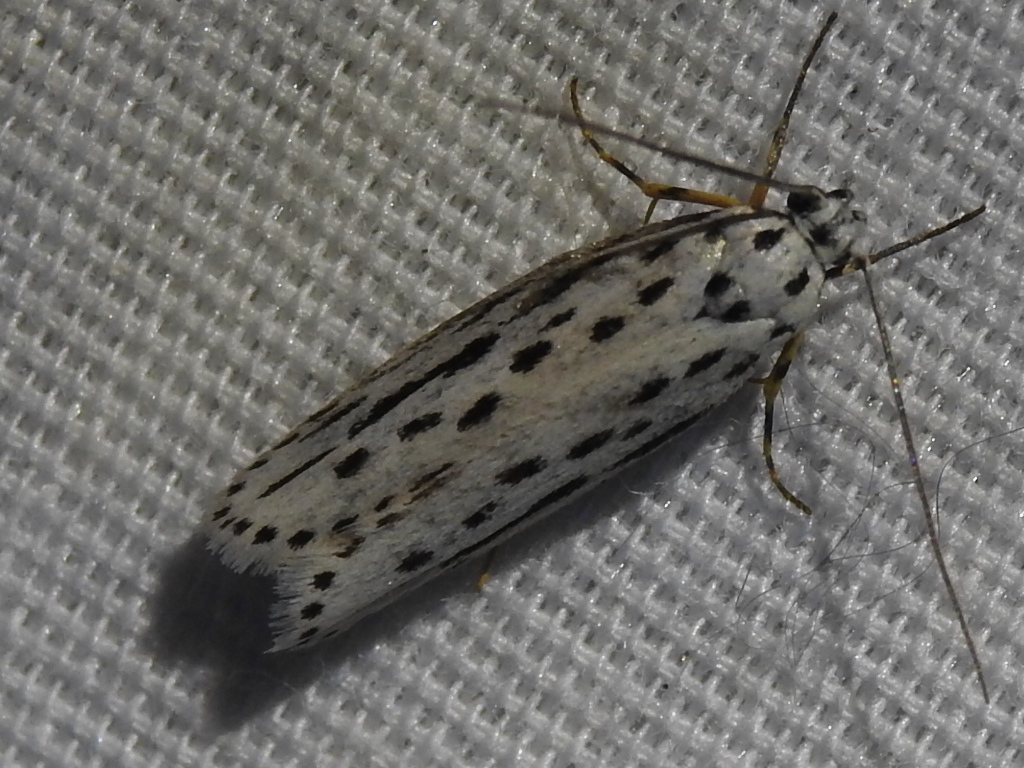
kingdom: Animalia
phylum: Arthropoda
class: Insecta
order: Lepidoptera
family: Ethmiidae
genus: Ethmia
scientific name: Ethmia zelleriella
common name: Zeller's ethmia
